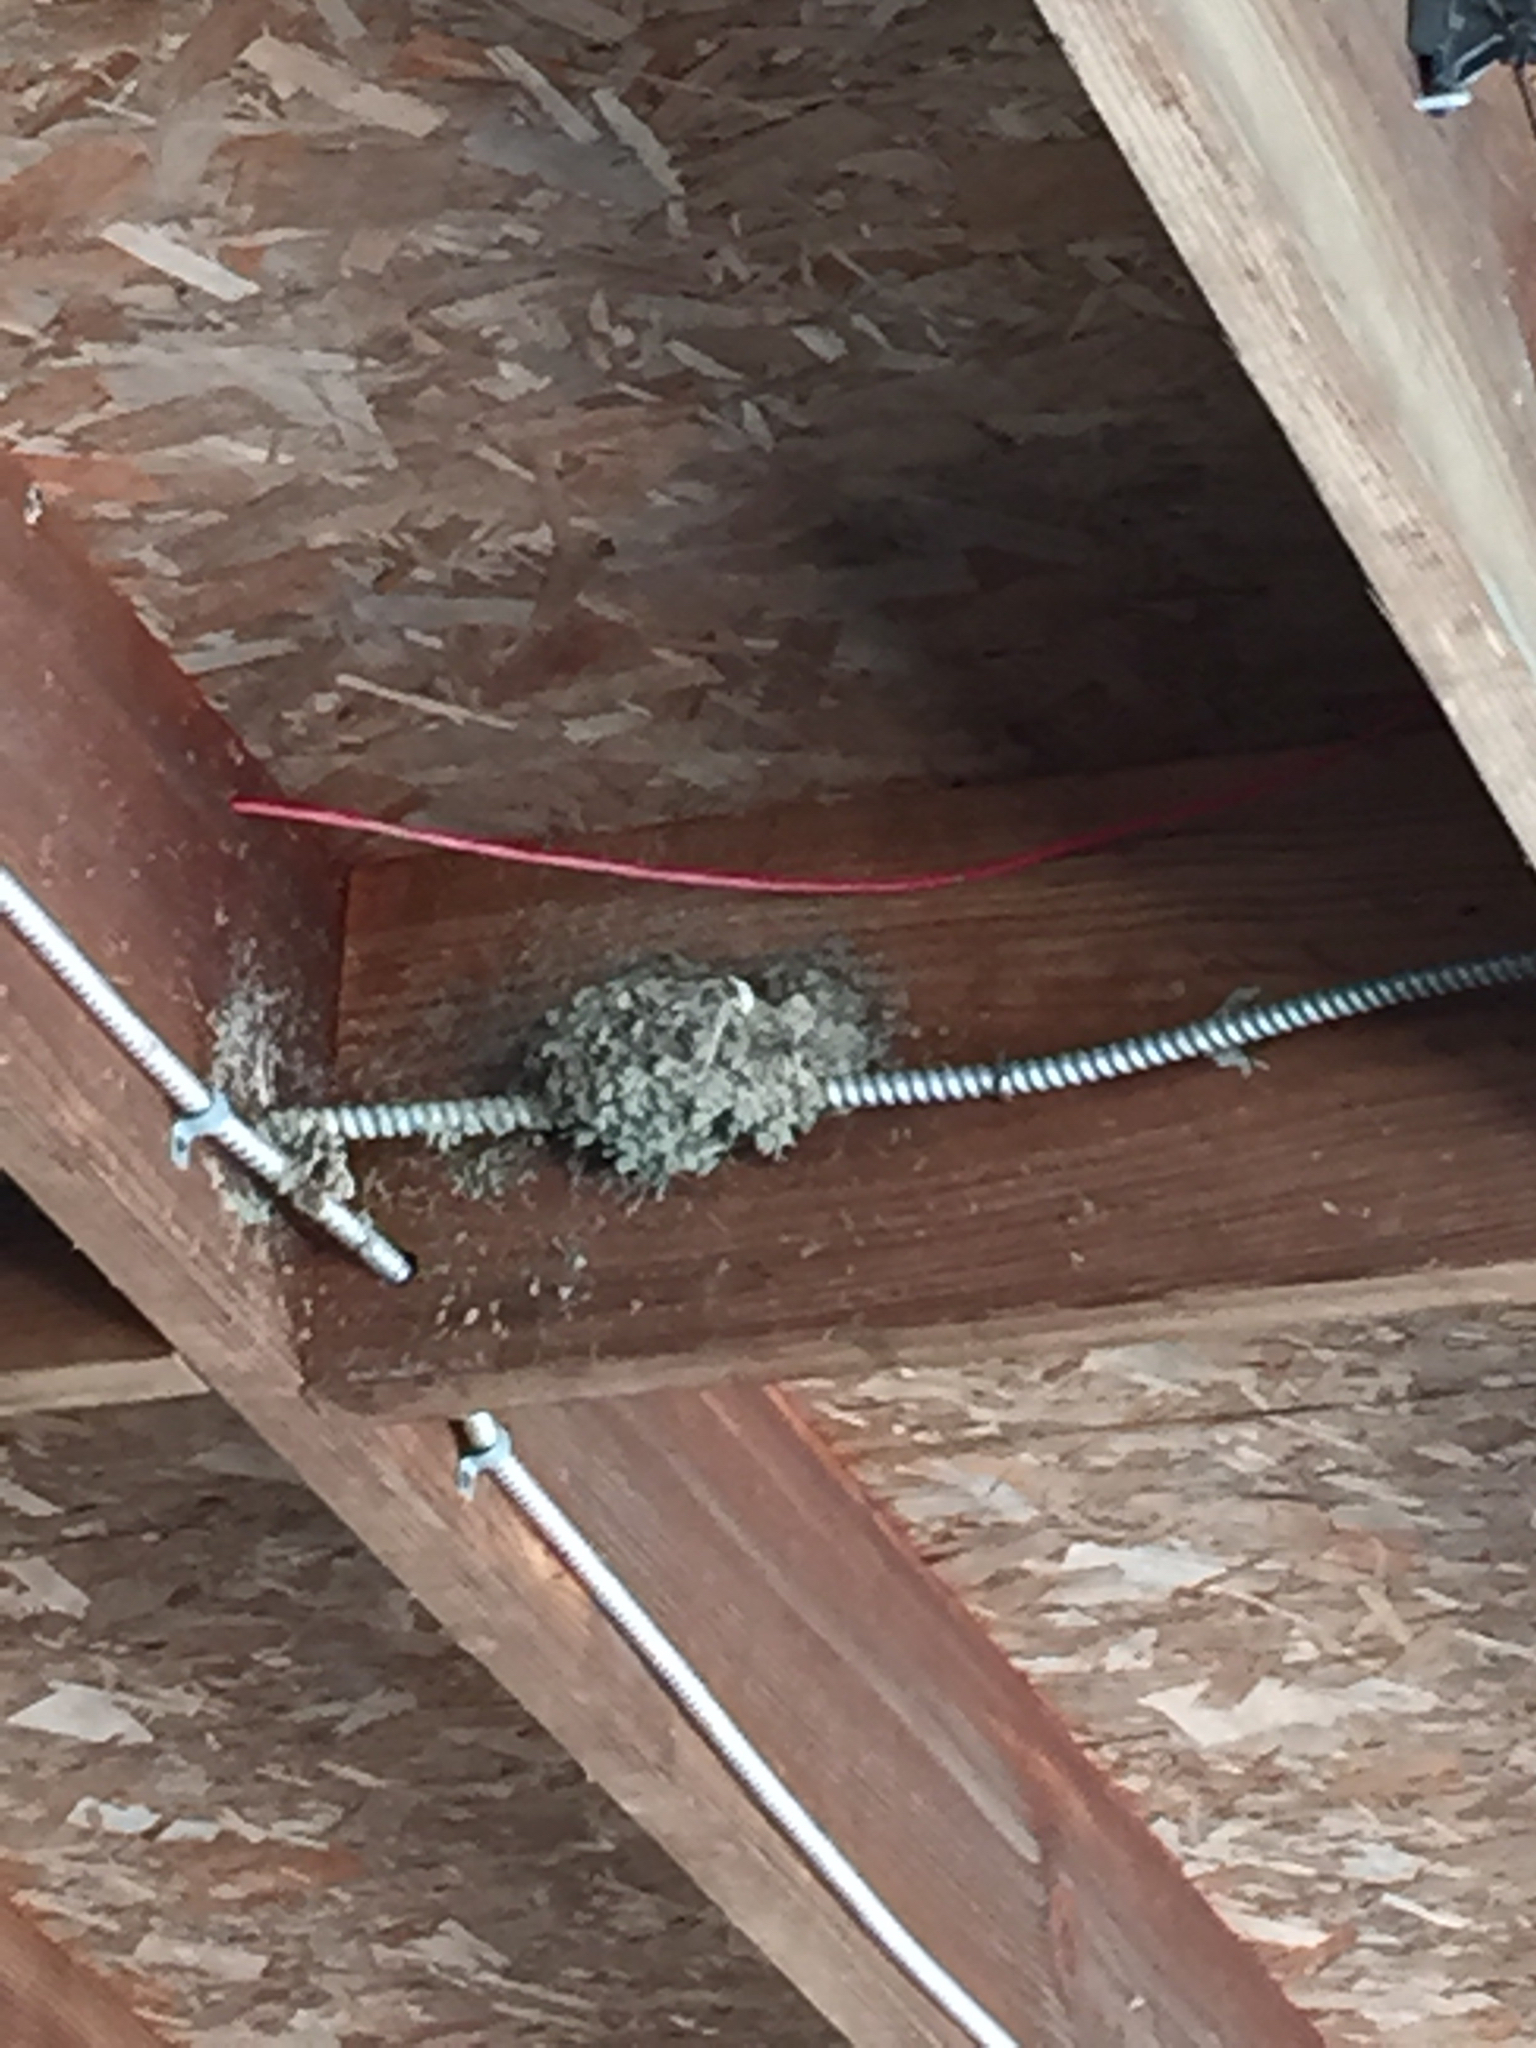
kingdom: Animalia
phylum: Chordata
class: Aves
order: Passeriformes
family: Tyrannidae
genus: Sayornis
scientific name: Sayornis nigricans
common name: Black phoebe
